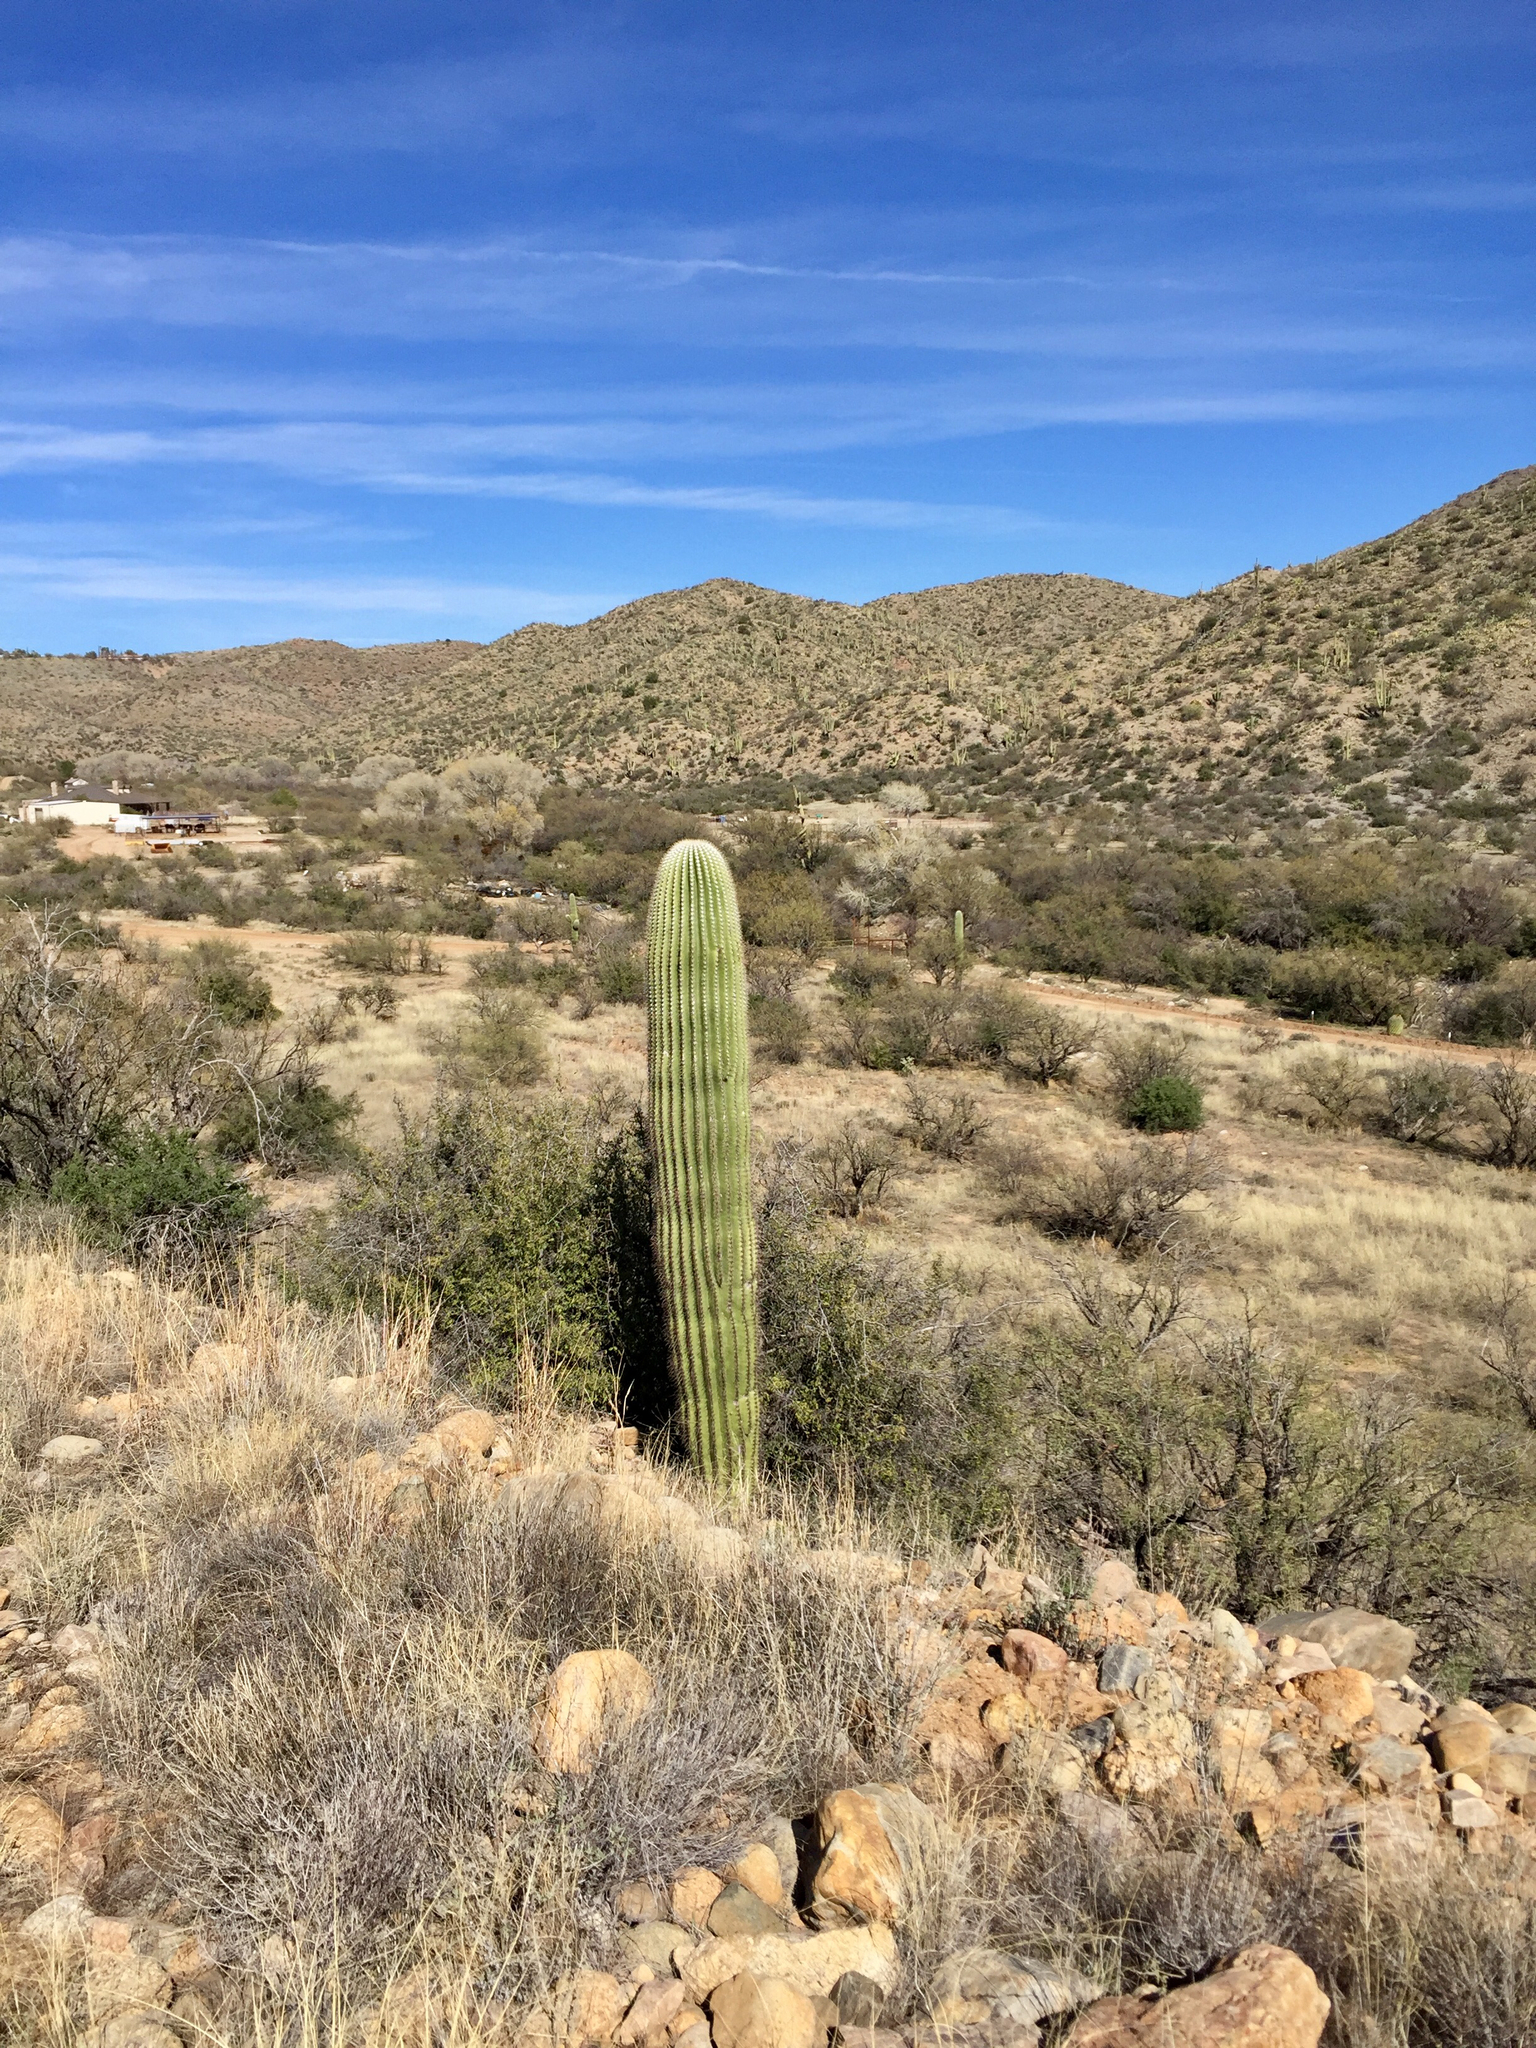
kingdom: Plantae
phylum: Tracheophyta
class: Magnoliopsida
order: Caryophyllales
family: Cactaceae
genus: Carnegiea
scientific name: Carnegiea gigantea
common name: Saguaro
